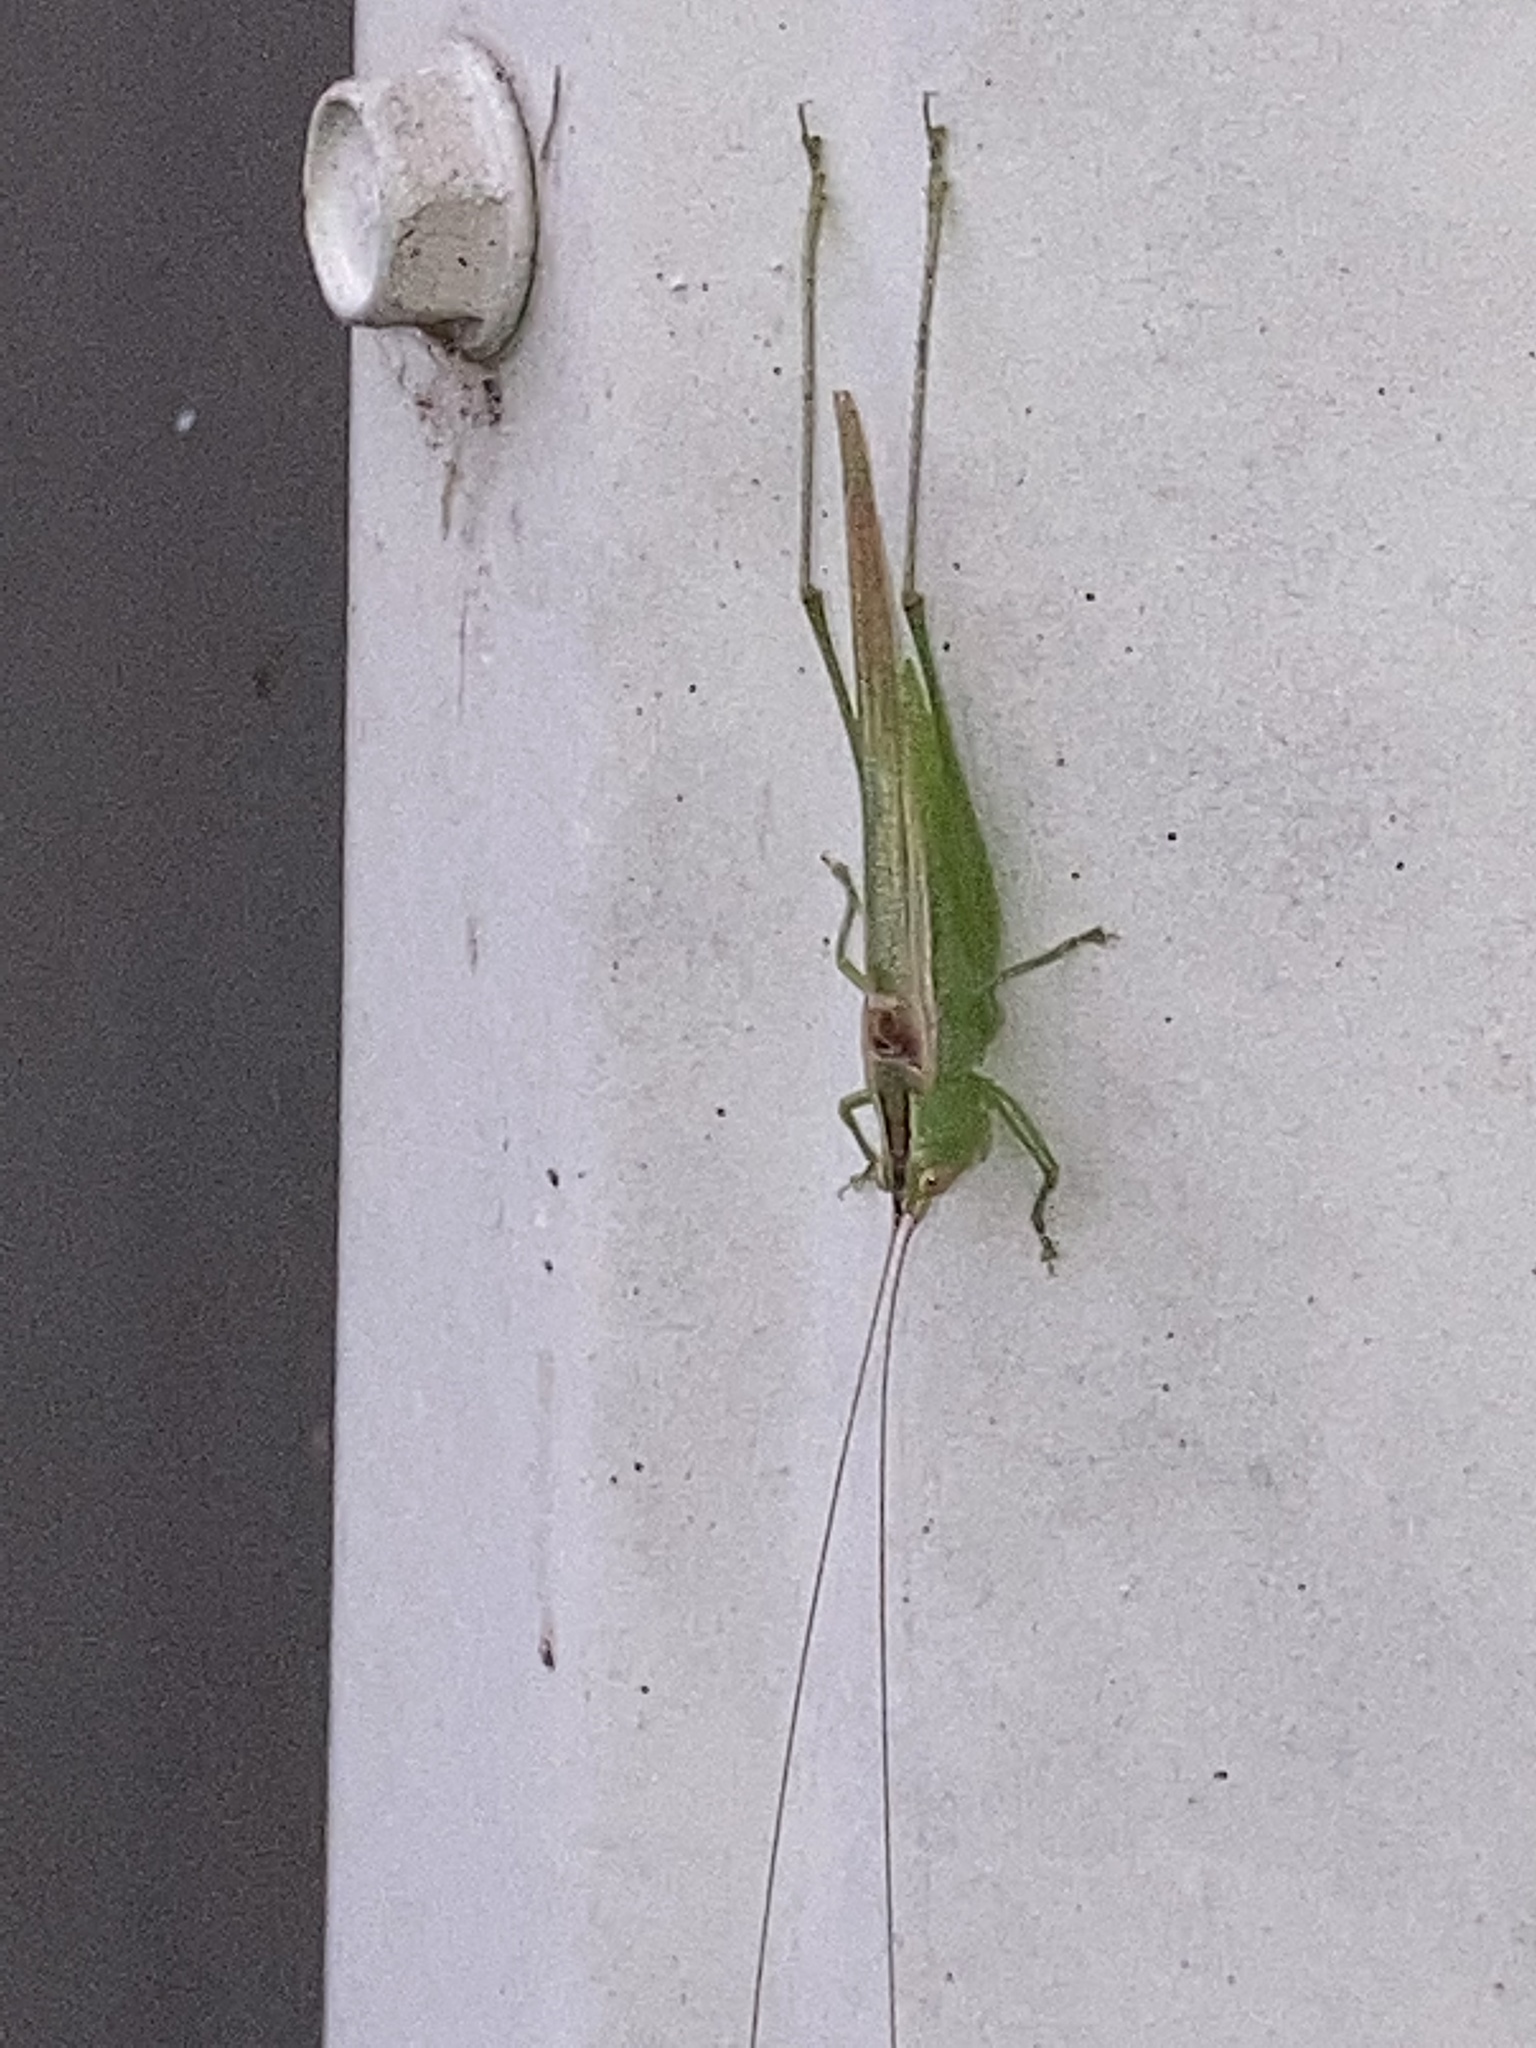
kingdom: Animalia
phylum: Arthropoda
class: Insecta
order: Orthoptera
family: Tettigoniidae
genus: Conocephalus
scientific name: Conocephalus fasciatus
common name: Slender meadow katydid
